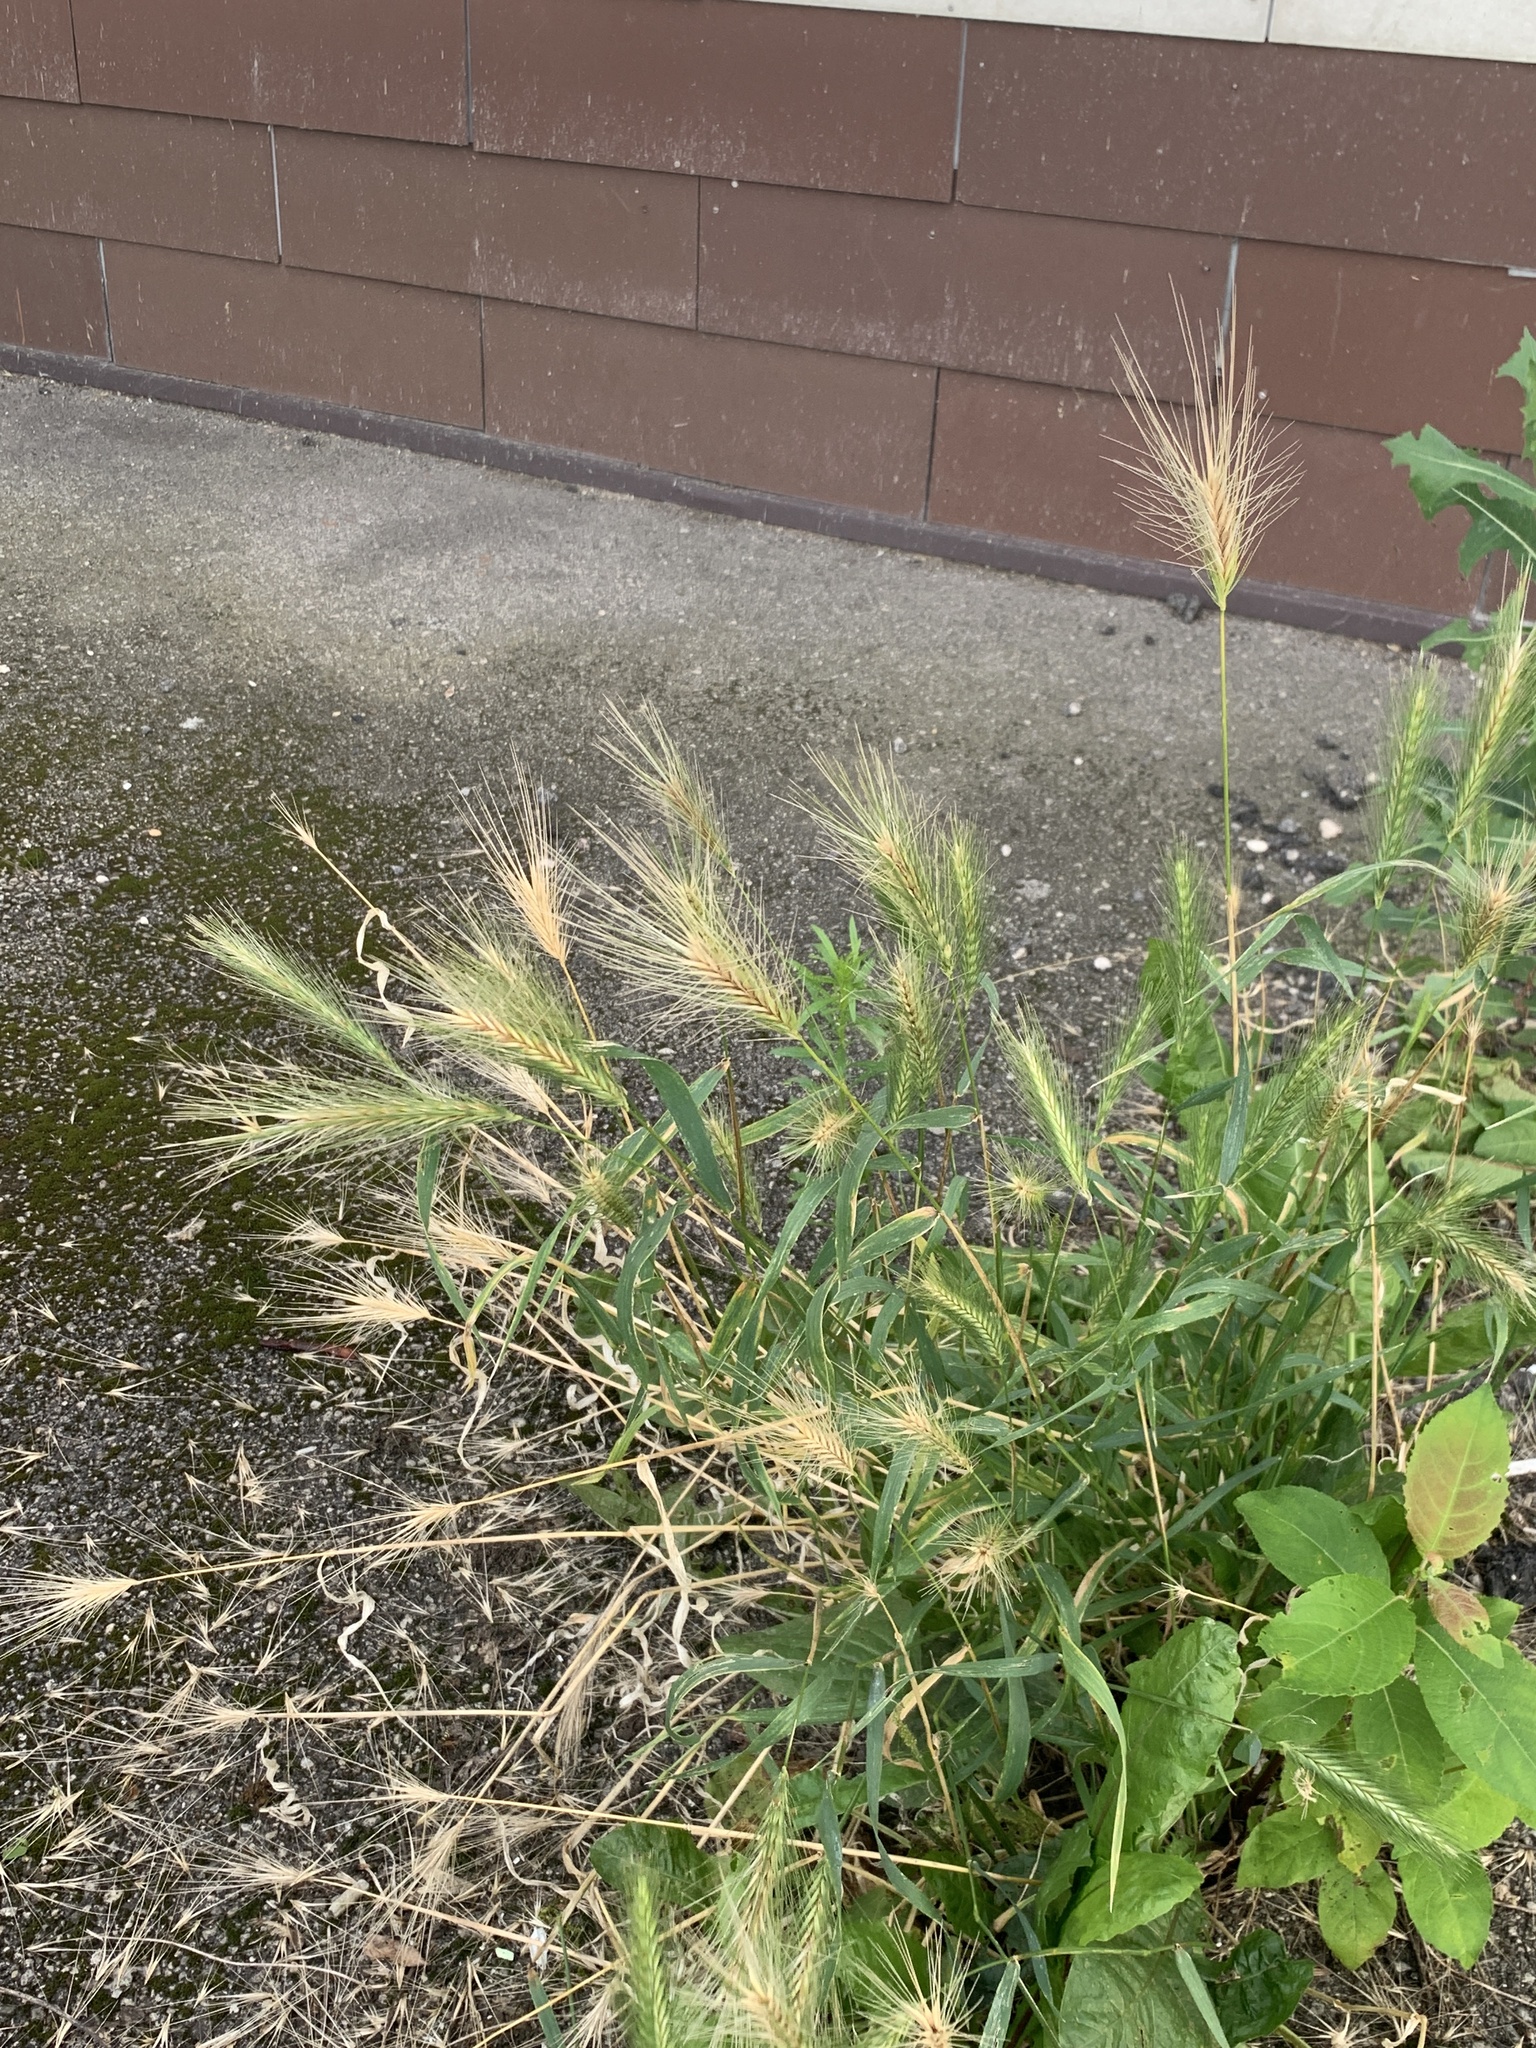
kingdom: Plantae
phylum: Tracheophyta
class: Liliopsida
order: Poales
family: Poaceae
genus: Hordeum
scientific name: Hordeum murinum
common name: Wall barley
